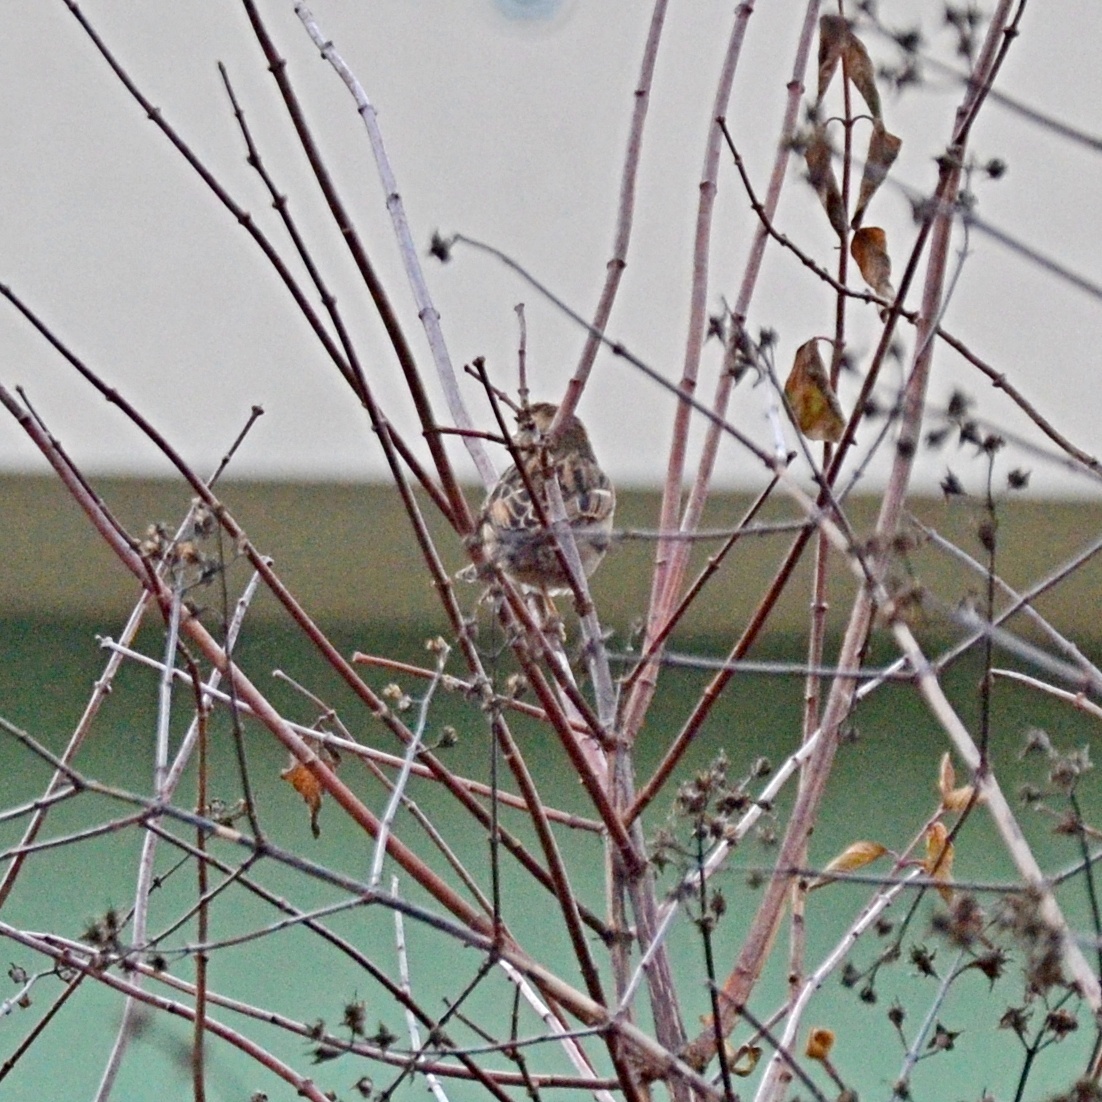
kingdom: Animalia
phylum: Chordata
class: Aves
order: Passeriformes
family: Passeridae
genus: Passer
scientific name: Passer domesticus
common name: House sparrow
